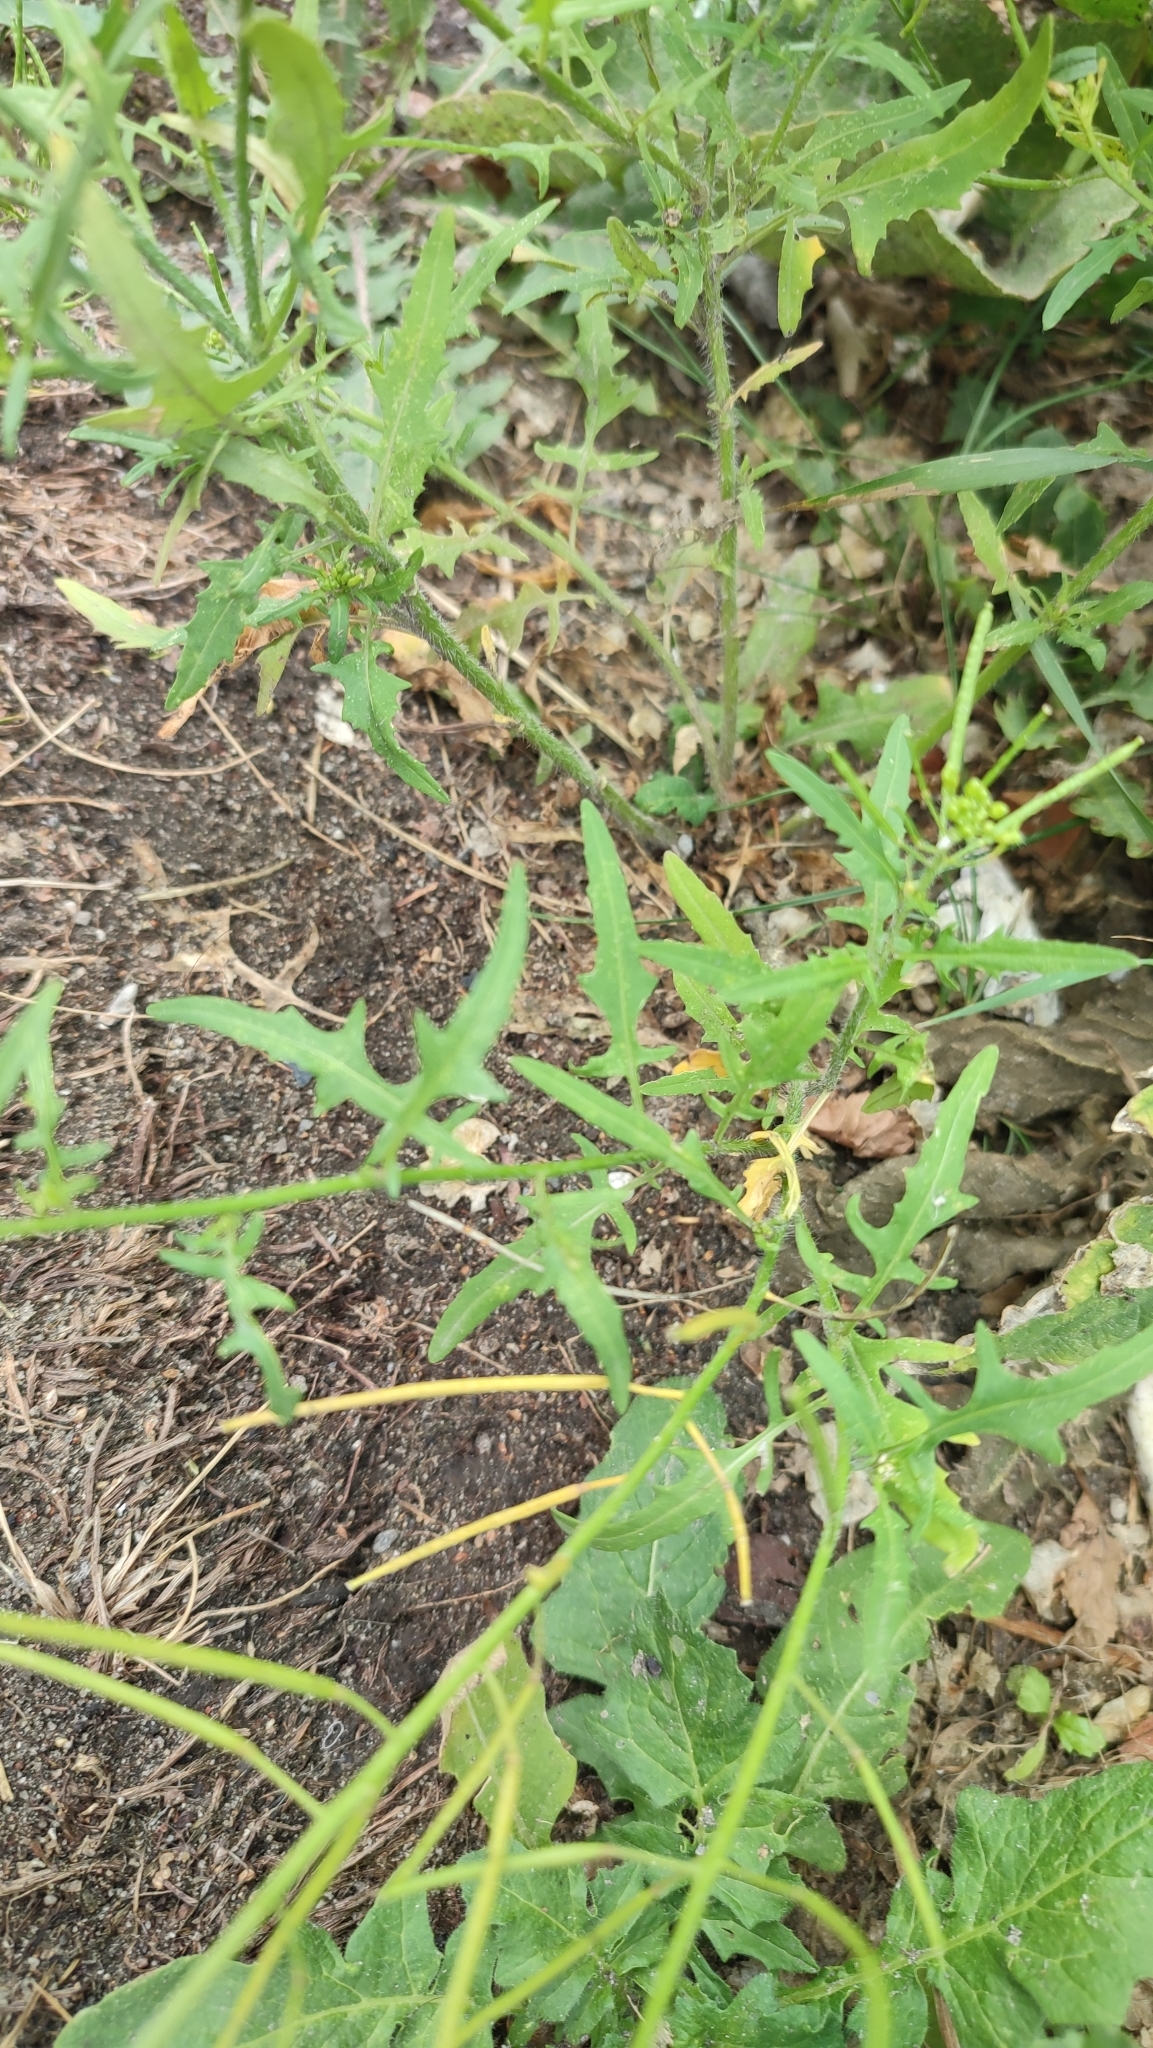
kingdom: Plantae
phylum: Tracheophyta
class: Magnoliopsida
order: Brassicales
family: Brassicaceae
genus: Sisymbrium
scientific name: Sisymbrium loeselii
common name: False london-rocket
